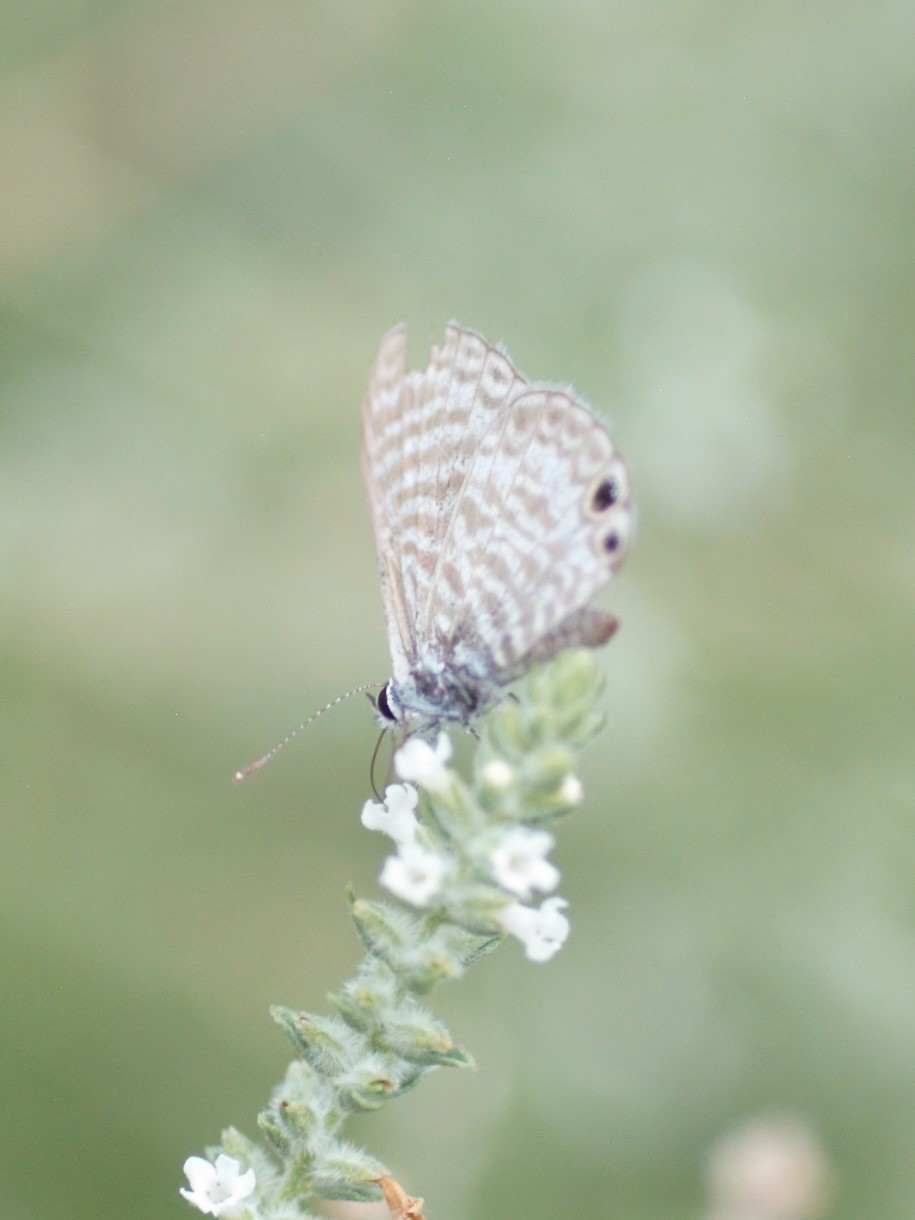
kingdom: Animalia
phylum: Arthropoda
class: Insecta
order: Lepidoptera
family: Lycaenidae
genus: Leptotes
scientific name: Leptotes marina
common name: Marine blue
